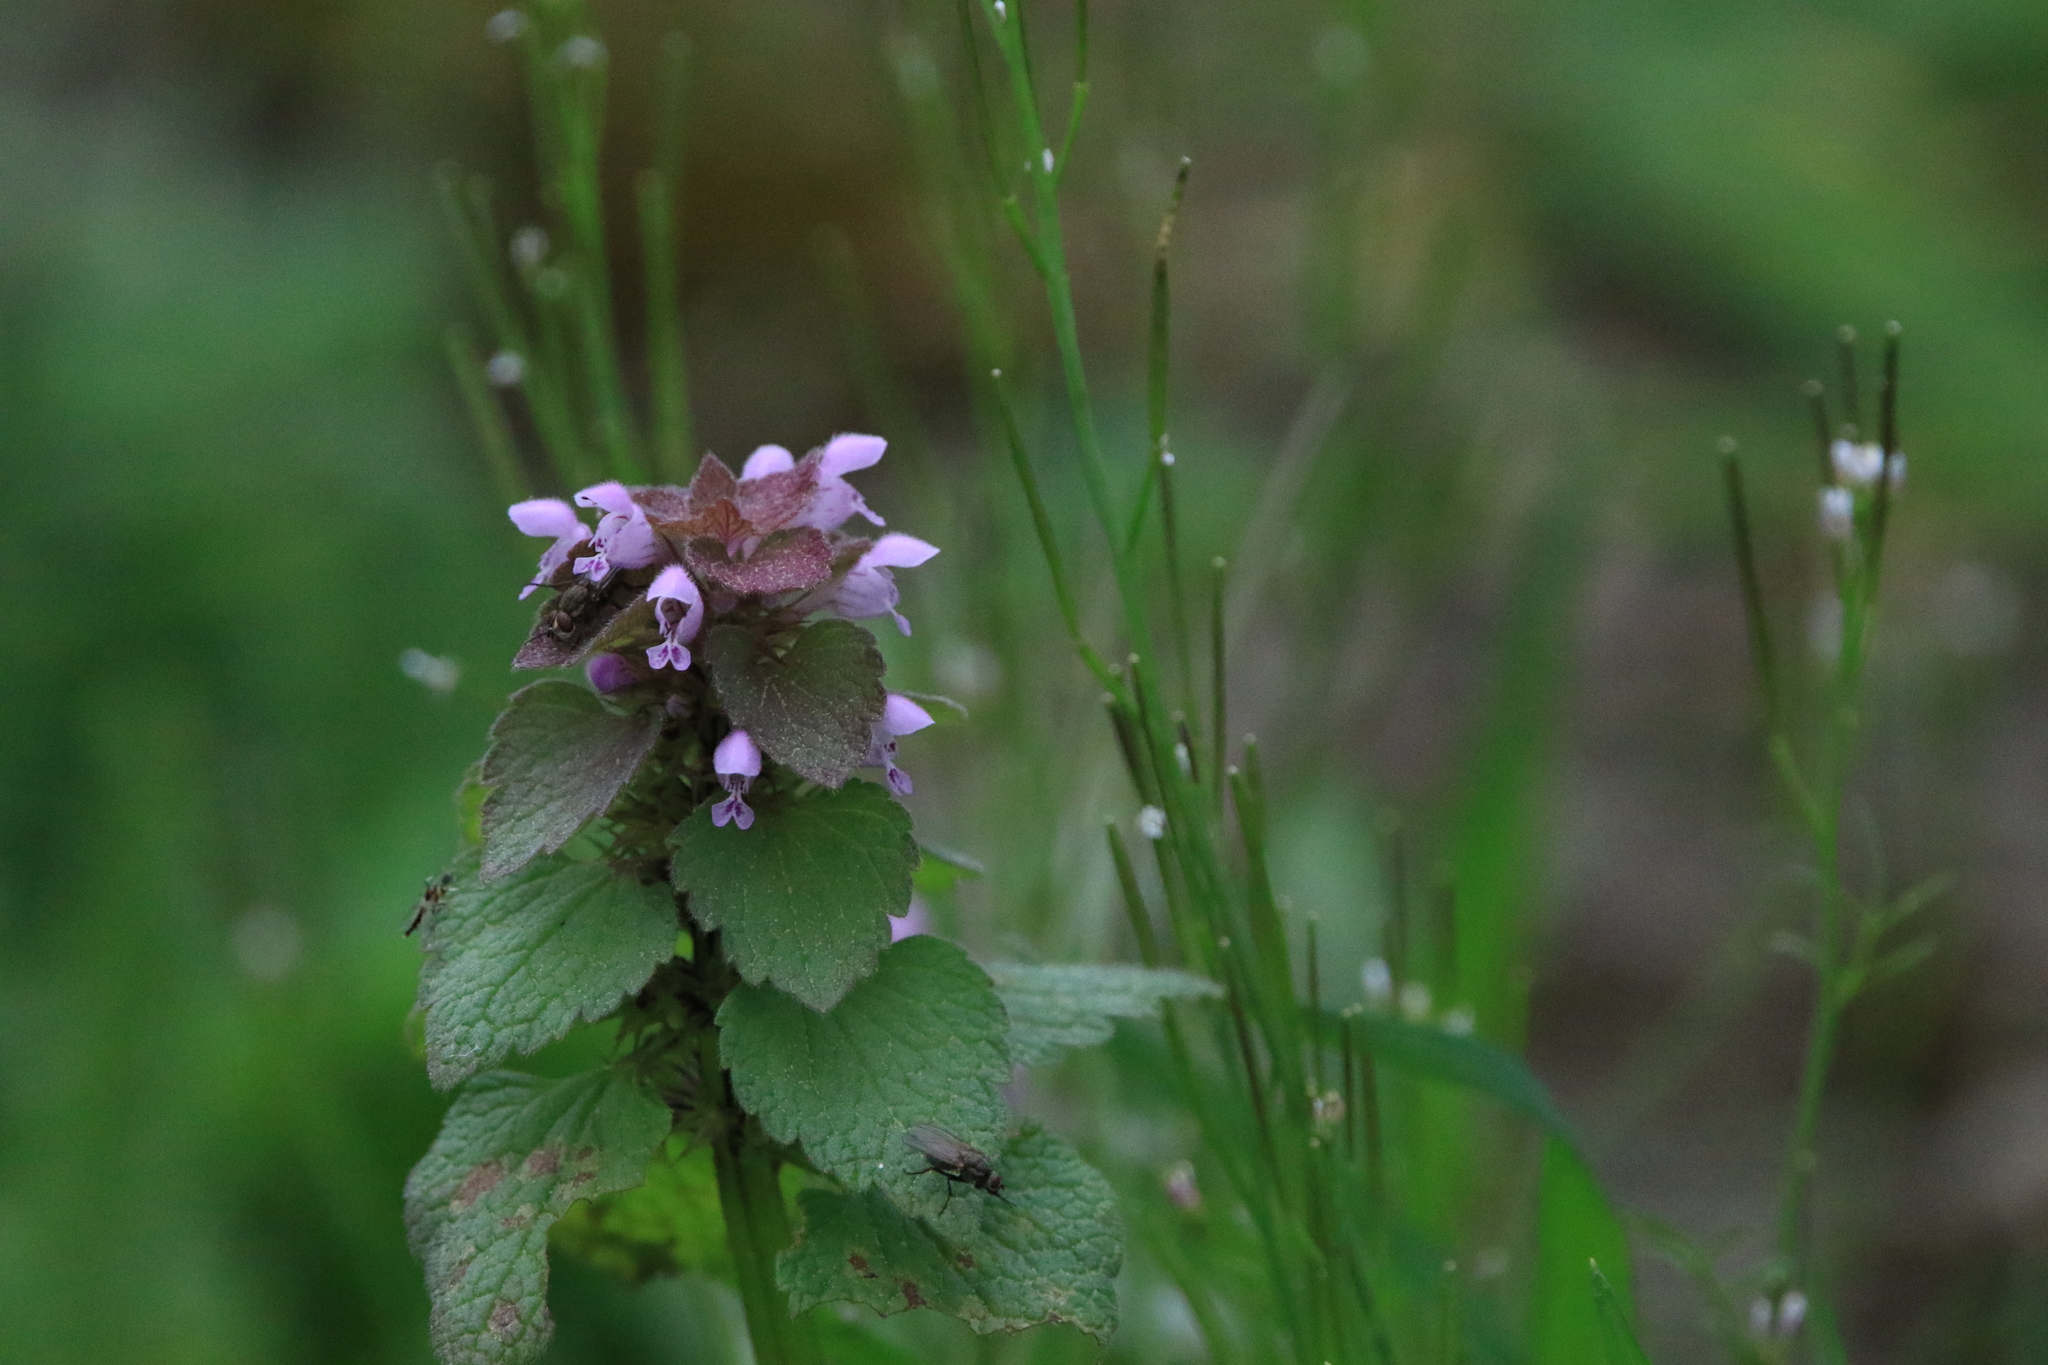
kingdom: Plantae
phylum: Tracheophyta
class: Magnoliopsida
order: Lamiales
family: Lamiaceae
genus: Lamium
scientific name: Lamium purpureum
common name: Red dead-nettle
